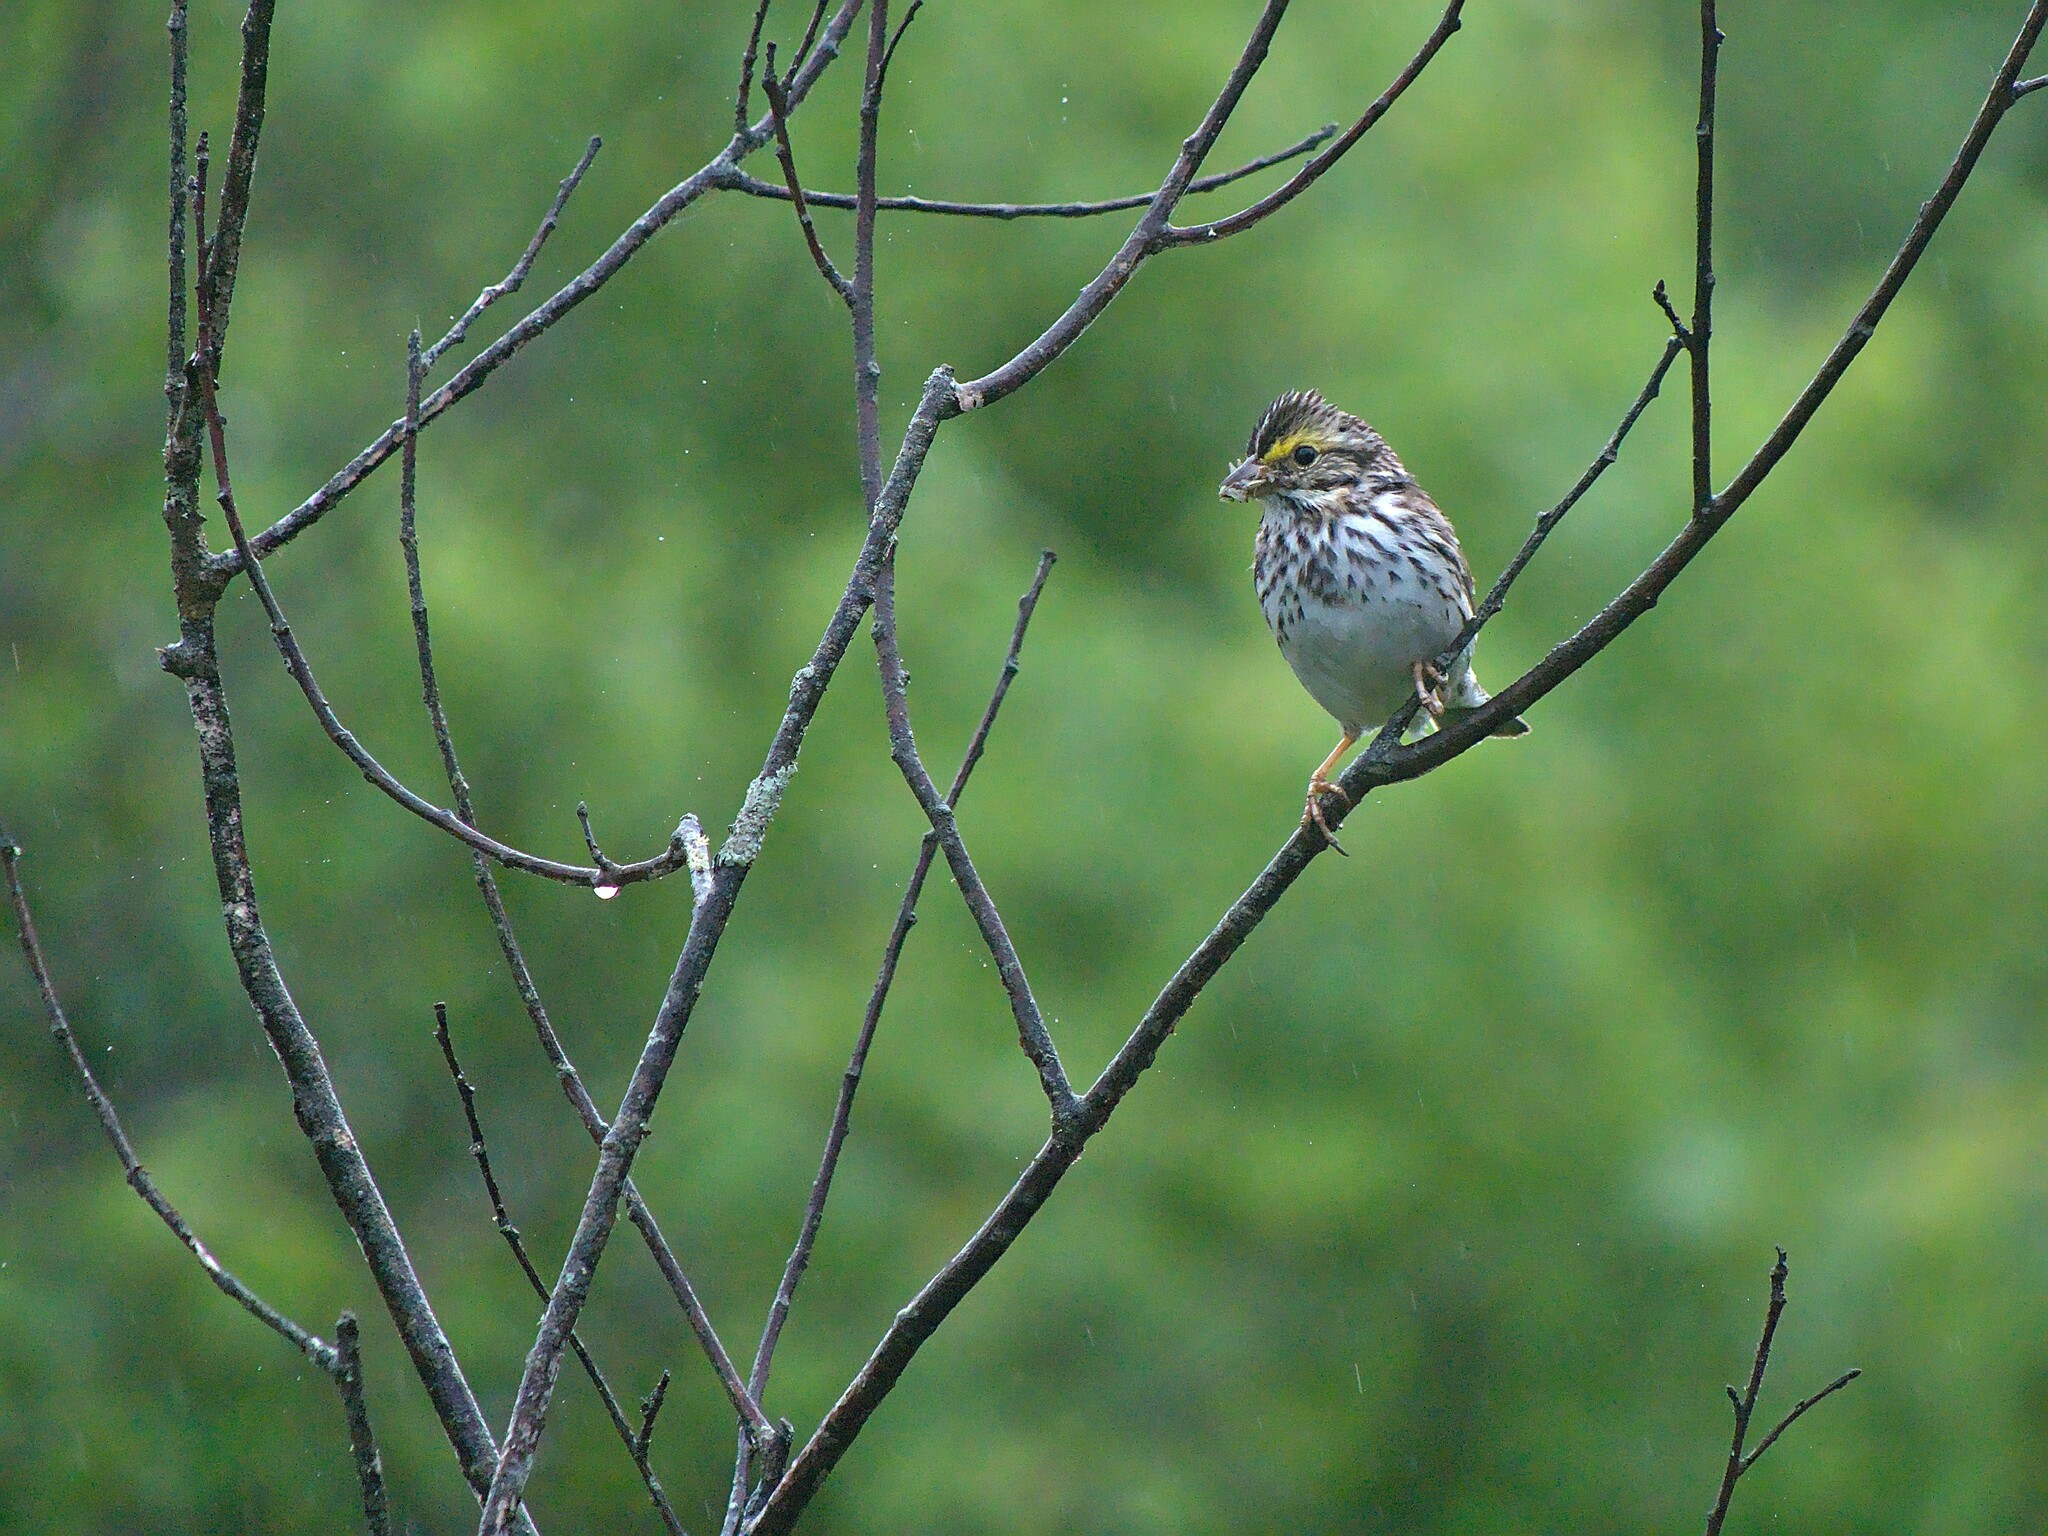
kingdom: Animalia
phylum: Chordata
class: Aves
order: Passeriformes
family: Passerellidae
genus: Passerculus
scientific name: Passerculus sandwichensis
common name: Savannah sparrow
